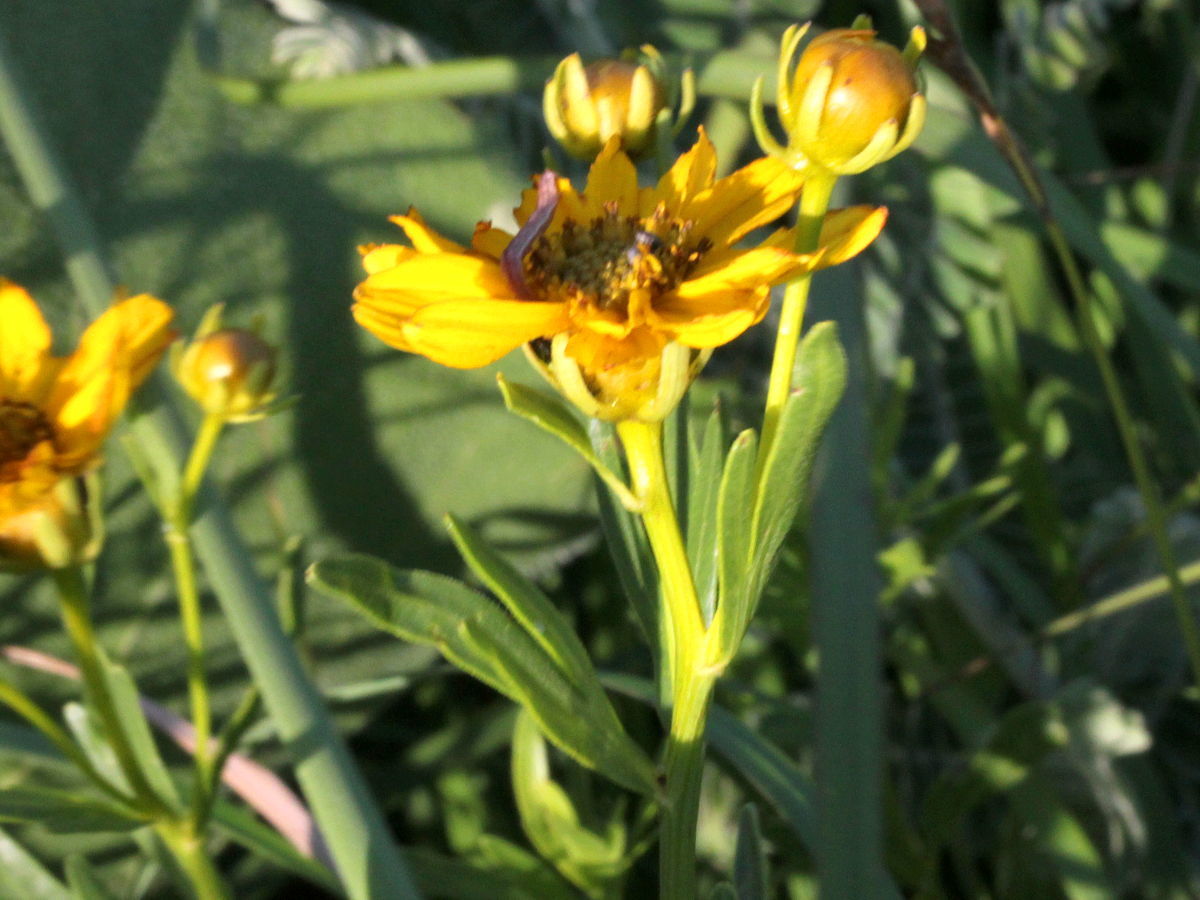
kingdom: Plantae
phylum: Tracheophyta
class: Magnoliopsida
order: Asterales
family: Asteraceae
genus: Coreopsis
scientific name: Coreopsis palmata
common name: Prairie coreopsis
